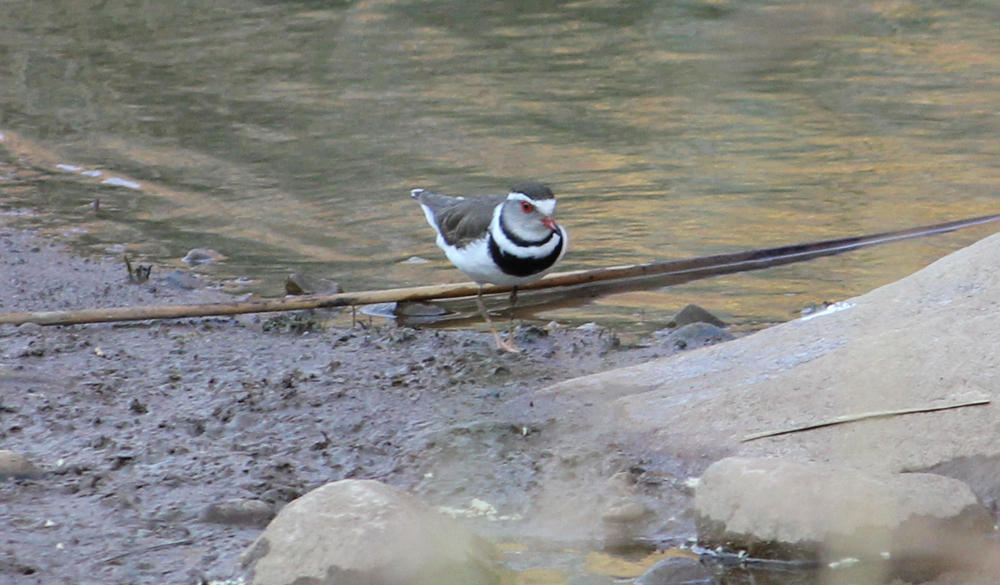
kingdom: Animalia
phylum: Chordata
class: Aves
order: Charadriiformes
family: Charadriidae
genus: Charadrius
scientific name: Charadrius tricollaris
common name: Three-banded plover
